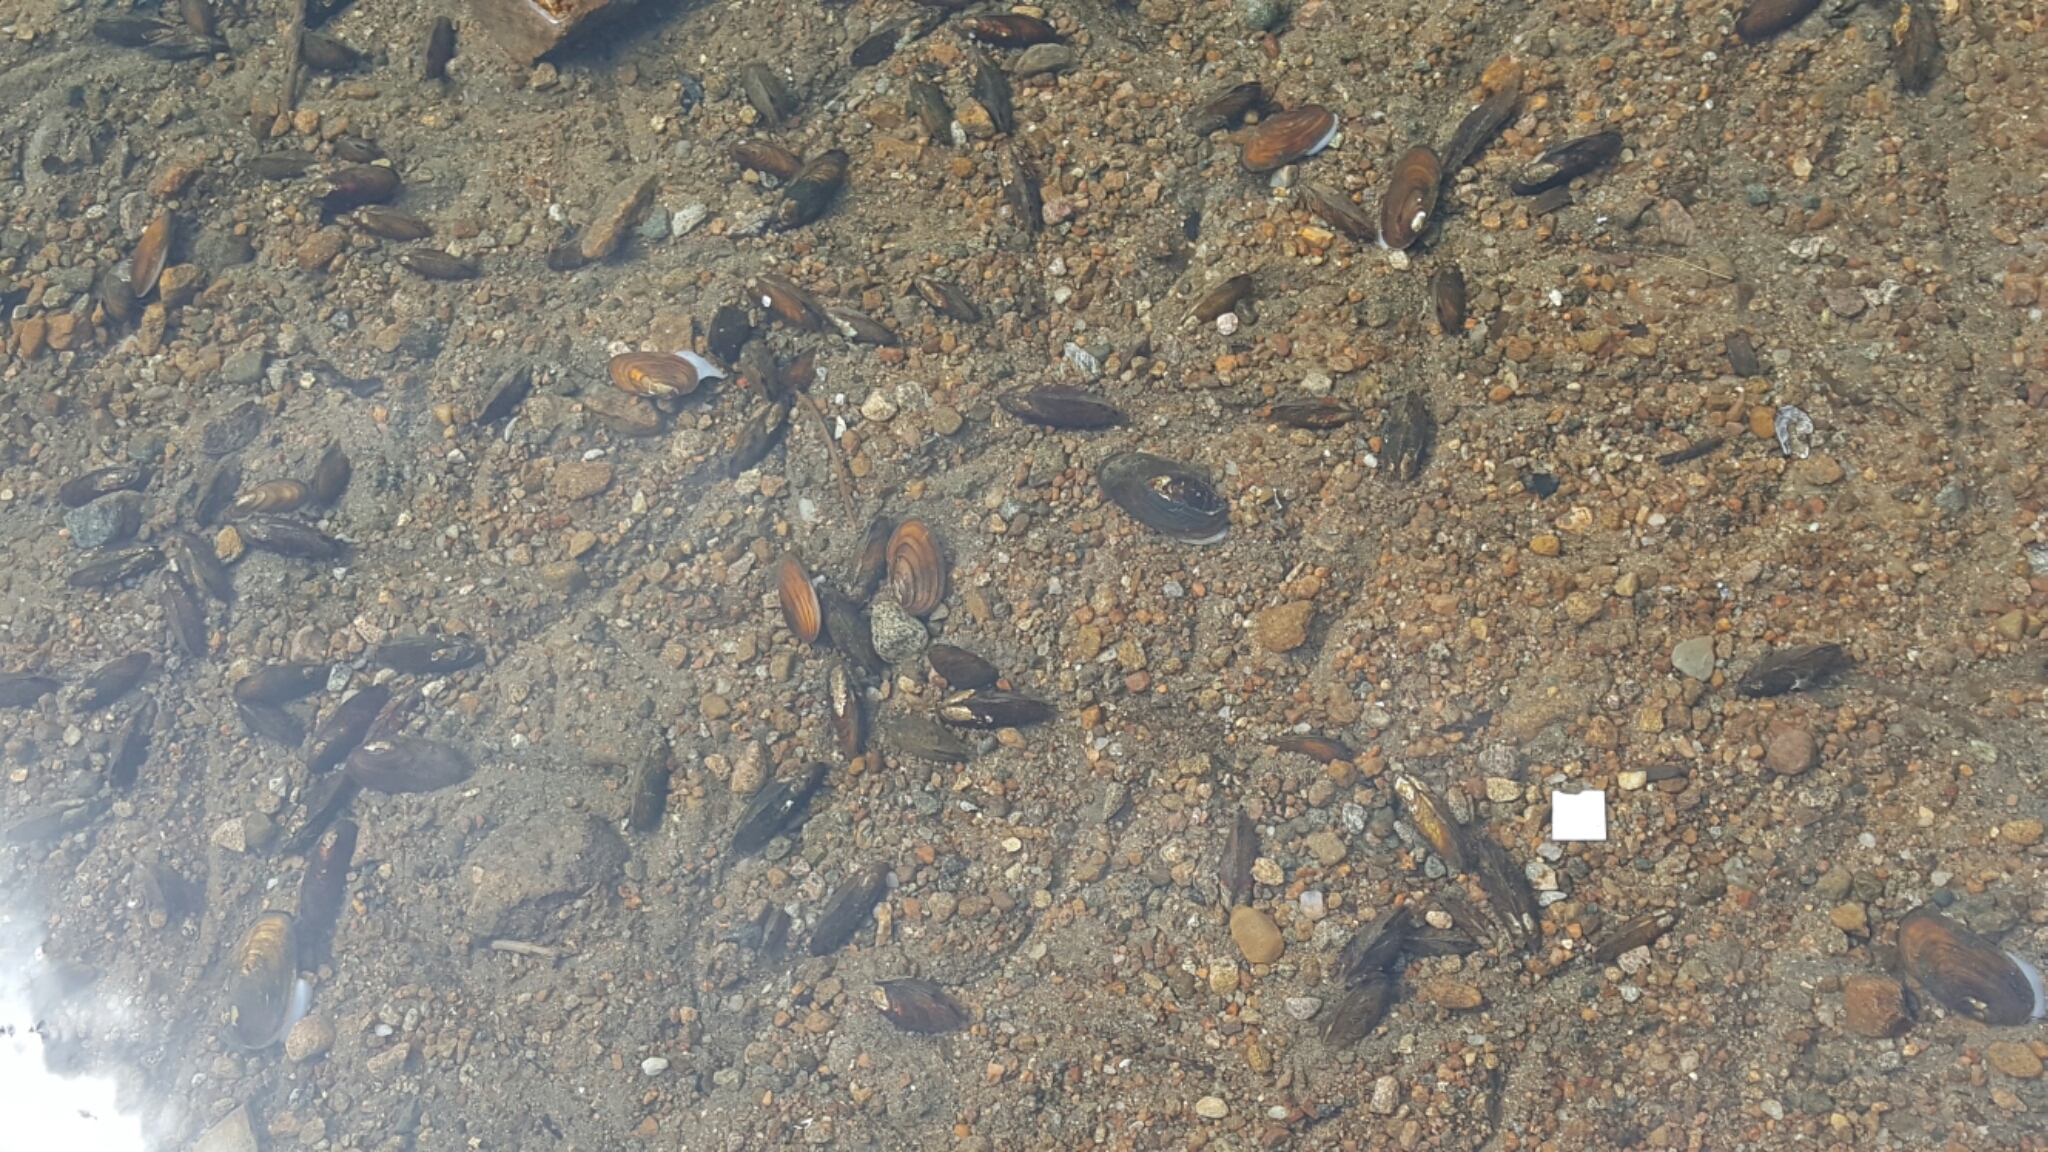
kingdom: Animalia
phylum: Mollusca
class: Bivalvia
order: Unionida
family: Unionidae
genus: Elliptio
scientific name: Elliptio complanata
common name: Eastern elliptio
